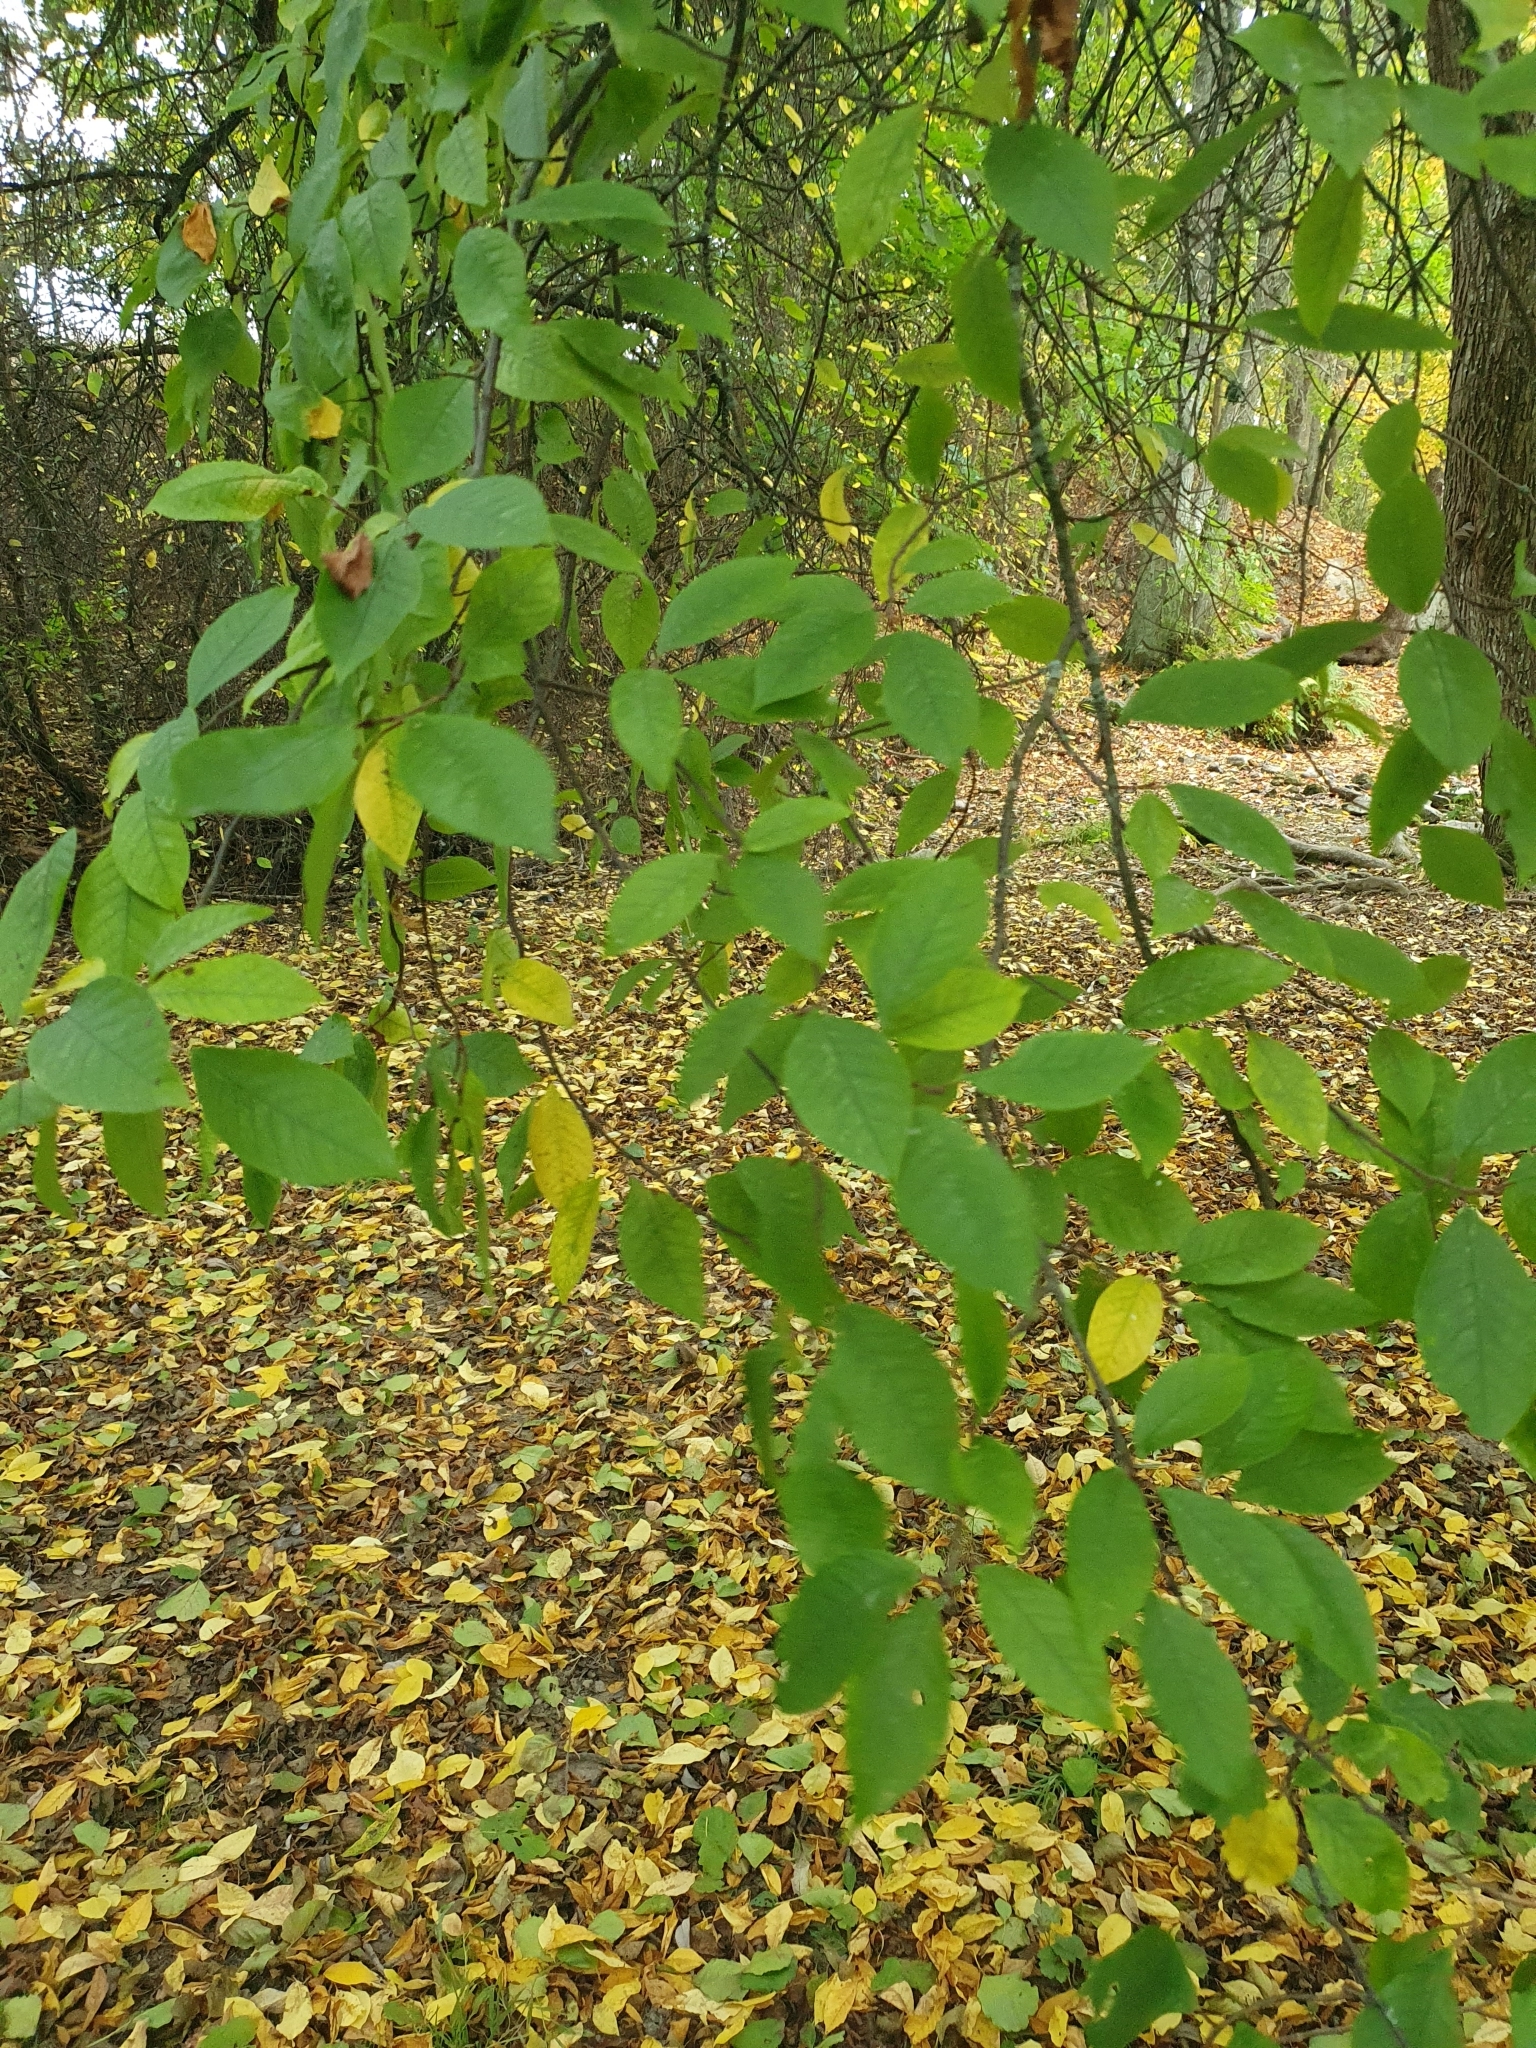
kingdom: Plantae
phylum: Tracheophyta
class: Magnoliopsida
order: Rosales
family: Rosaceae
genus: Prunus
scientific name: Prunus padus
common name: Bird cherry
